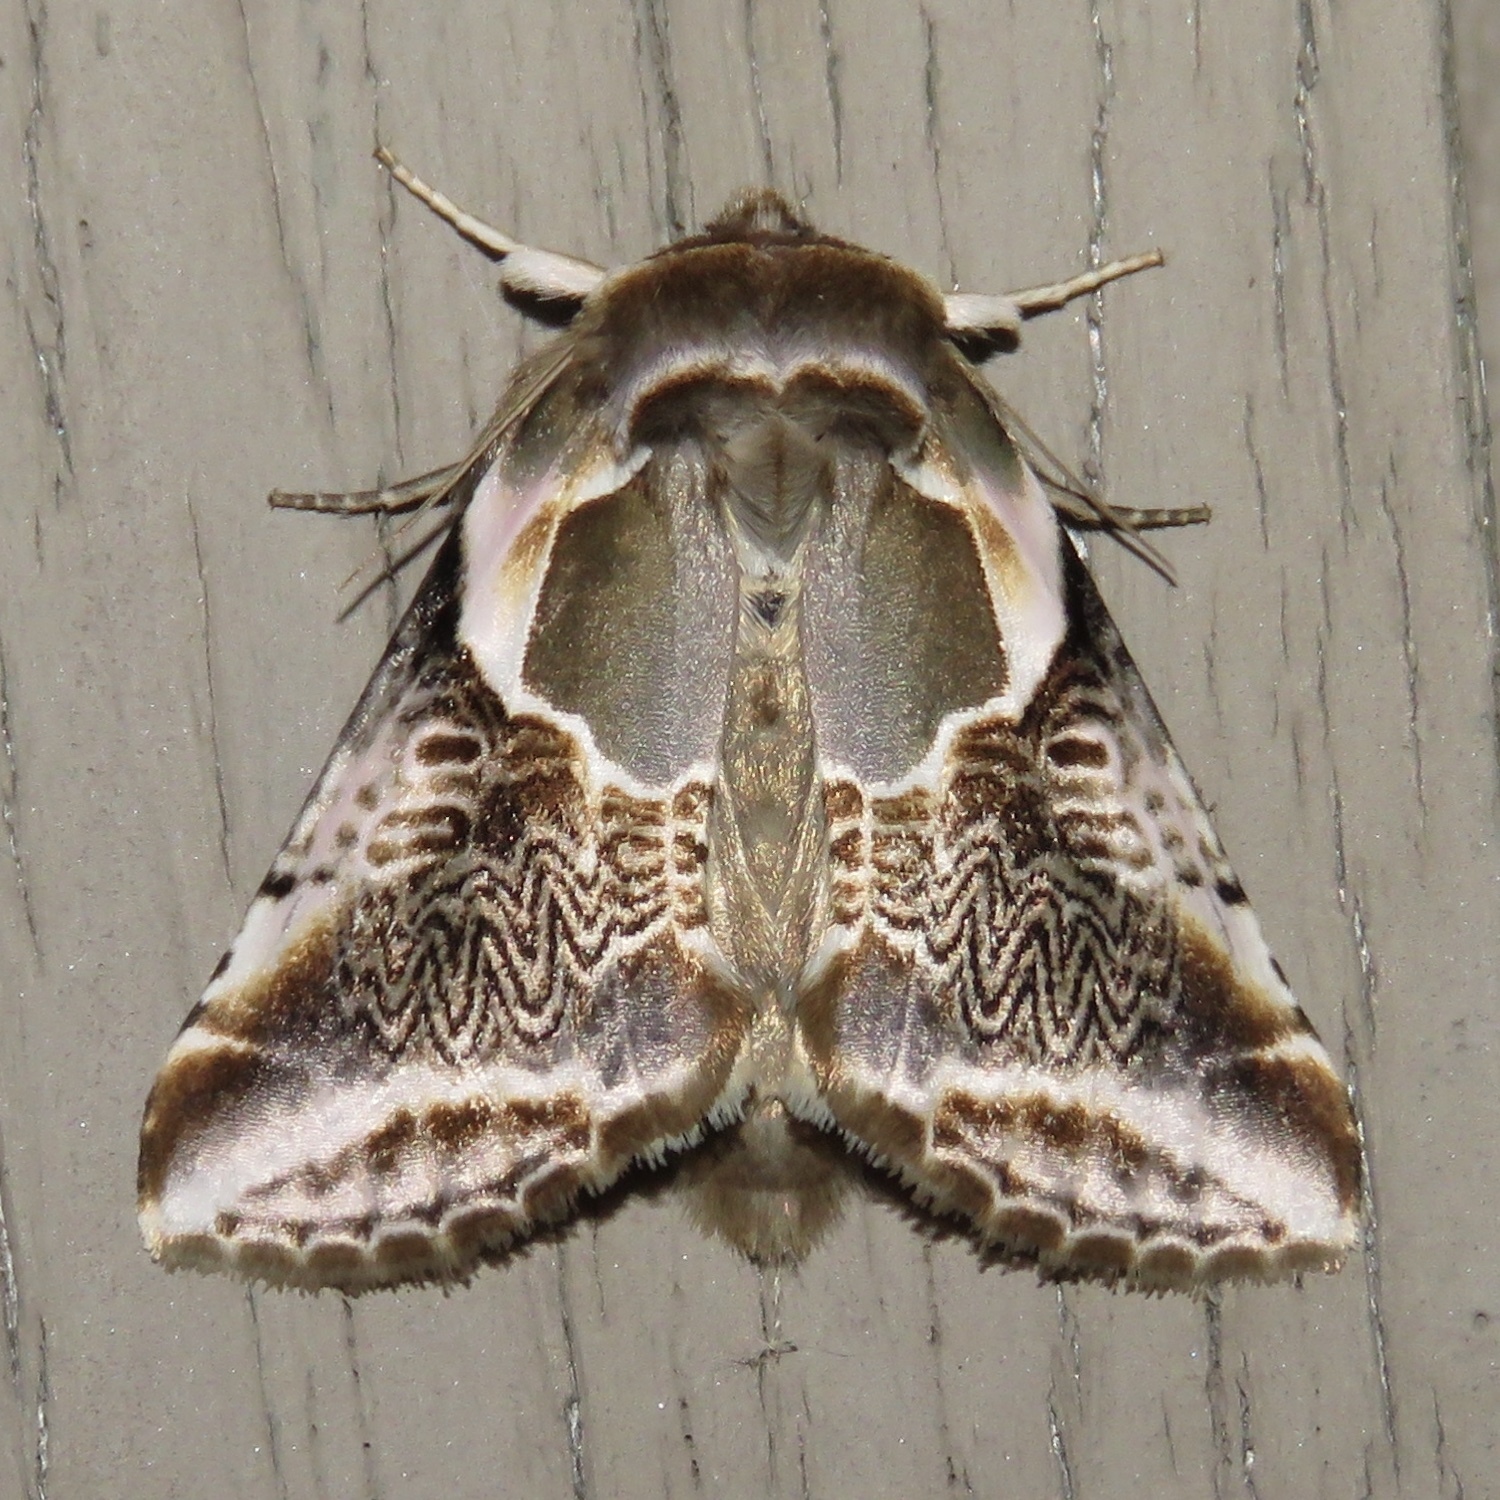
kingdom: Animalia
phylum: Arthropoda
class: Insecta
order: Lepidoptera
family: Drepanidae
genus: Habrosyne
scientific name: Habrosyne scripta
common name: Lettered habrosyne moth
